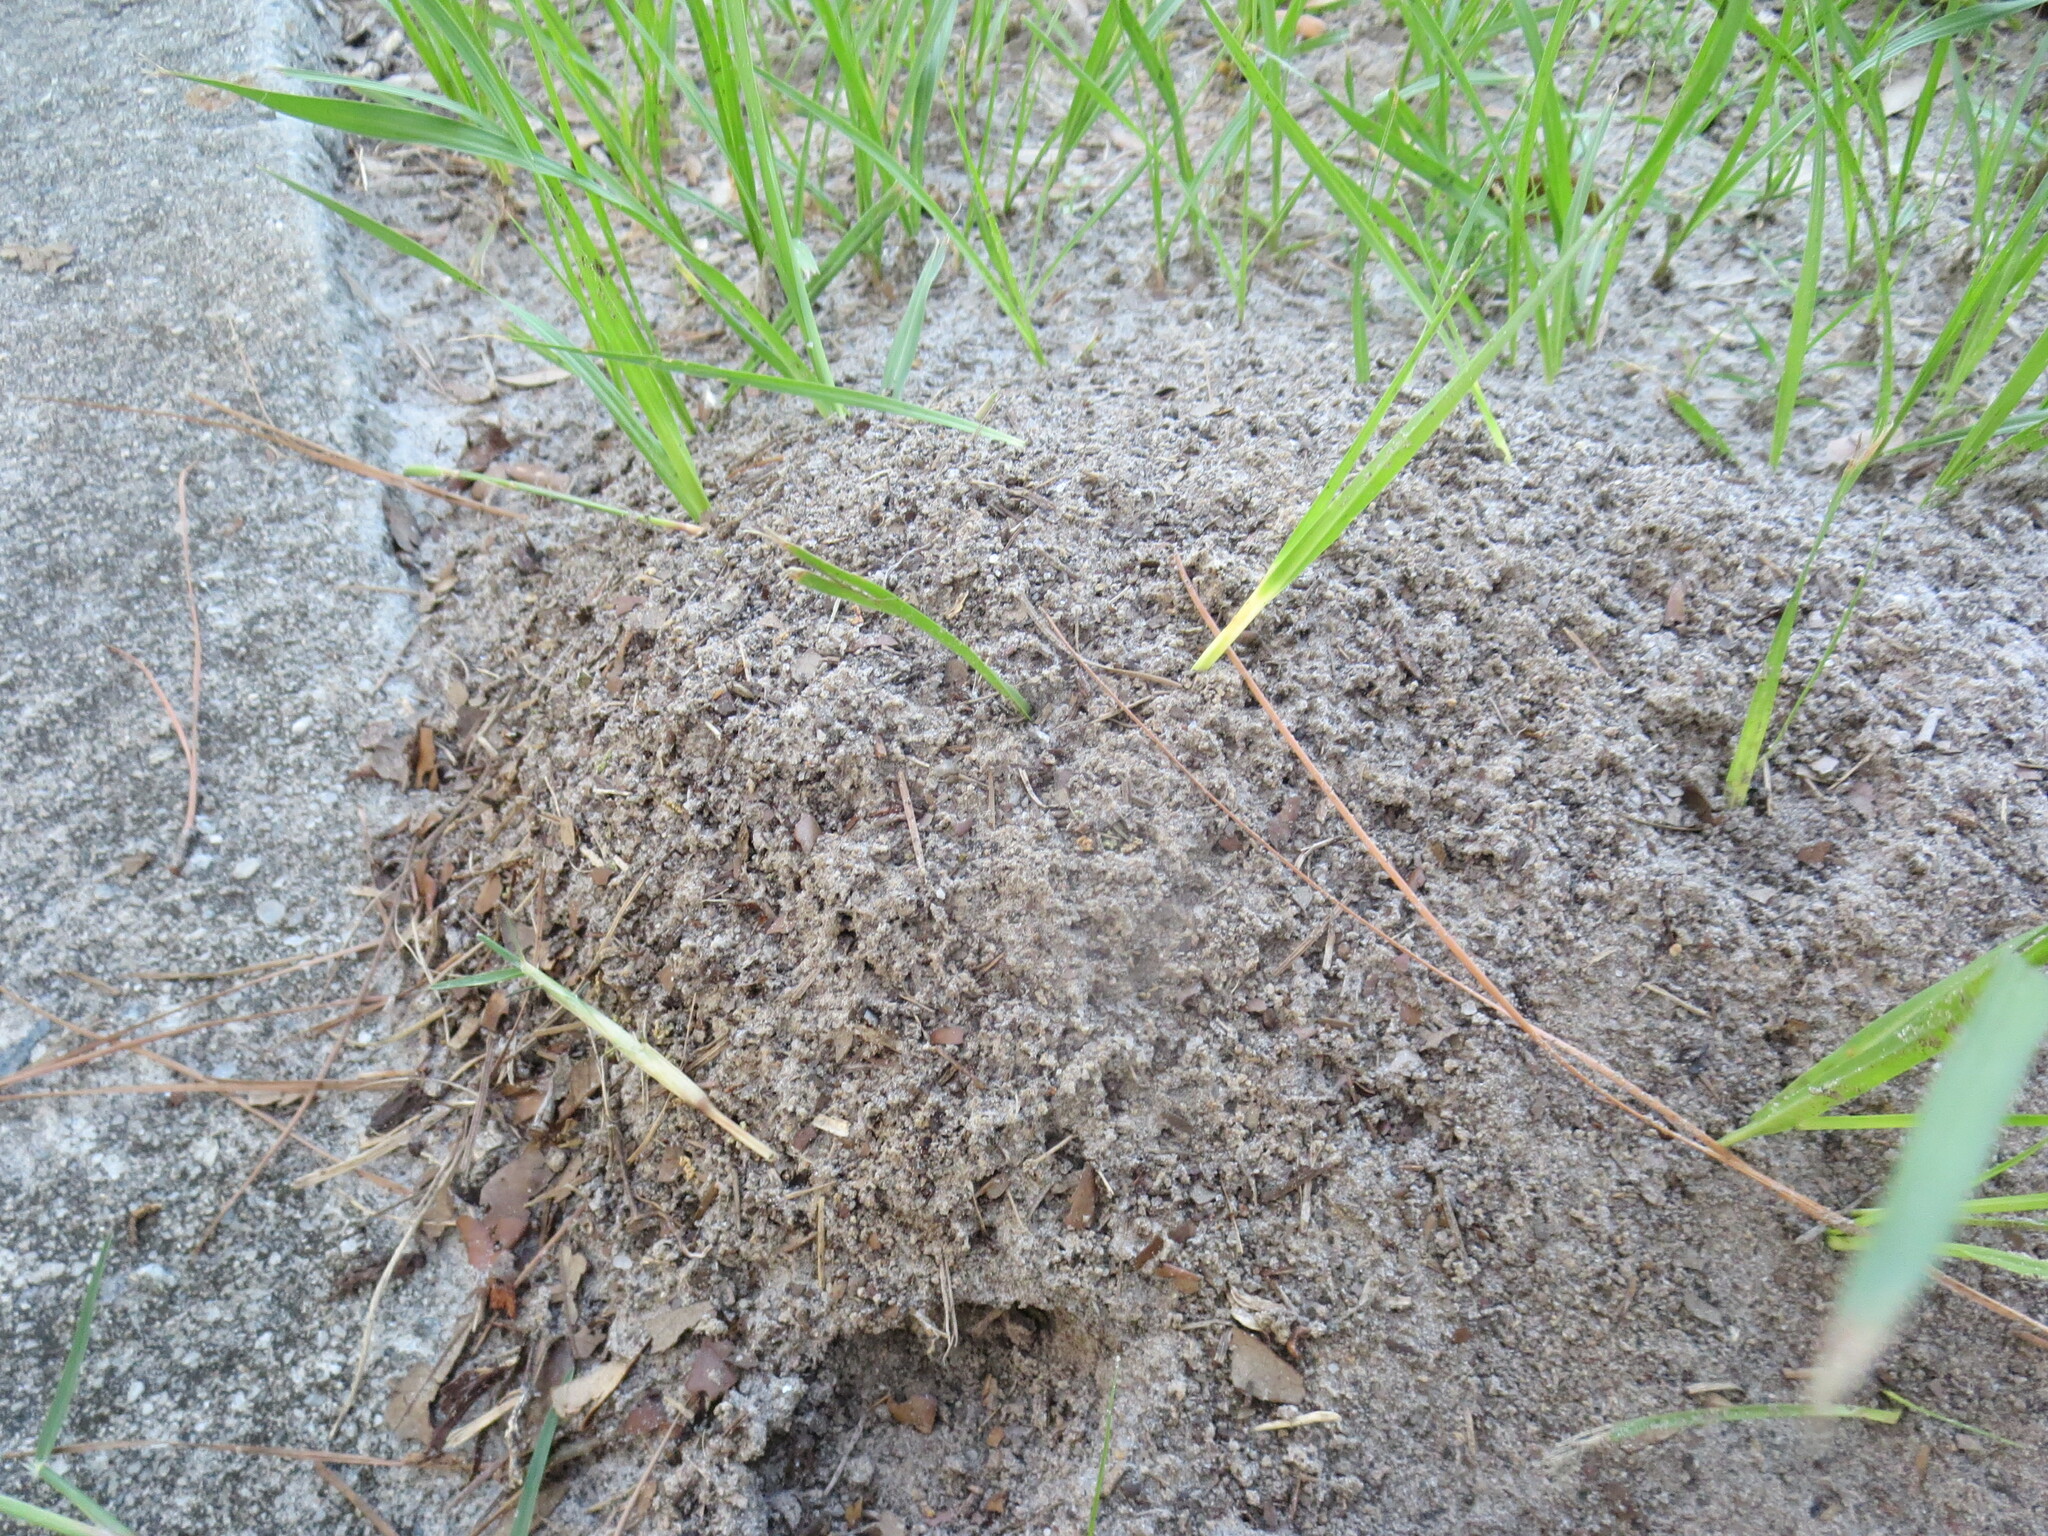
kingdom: Animalia
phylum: Arthropoda
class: Insecta
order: Hymenoptera
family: Formicidae
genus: Solenopsis
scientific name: Solenopsis invicta
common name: Red imported fire ant
